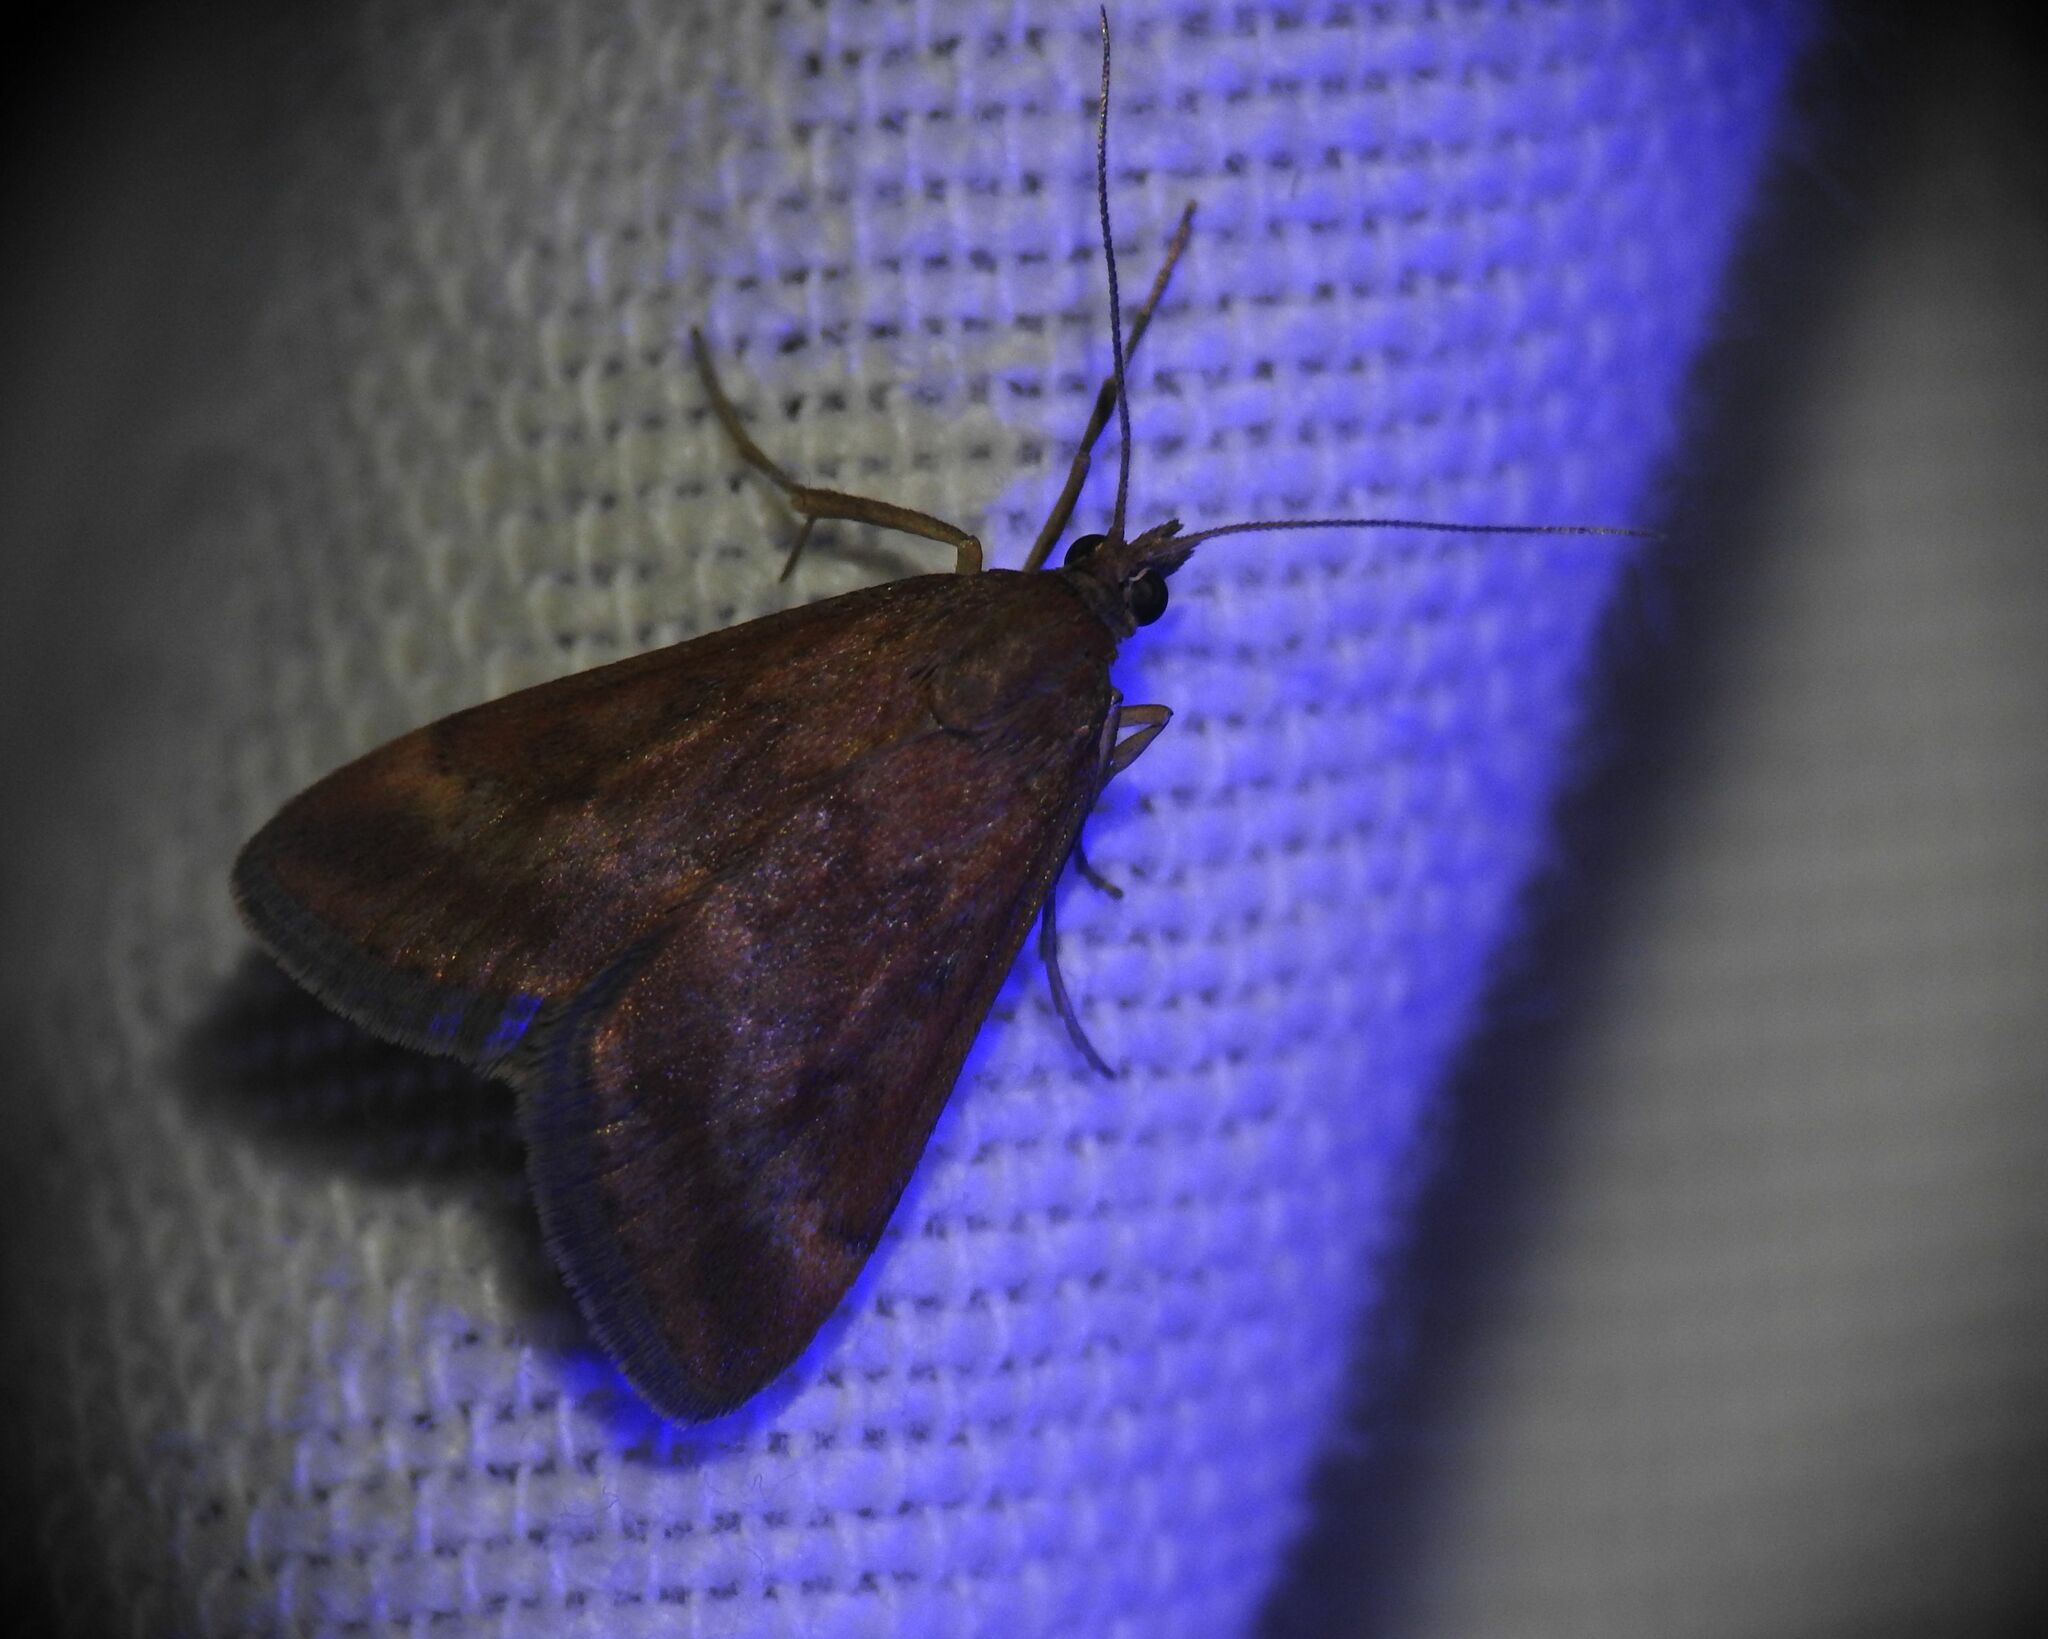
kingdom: Animalia
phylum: Arthropoda
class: Insecta
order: Lepidoptera
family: Crambidae
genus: Pyrausta
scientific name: Pyrausta despicata
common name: Straw-barred pearl
